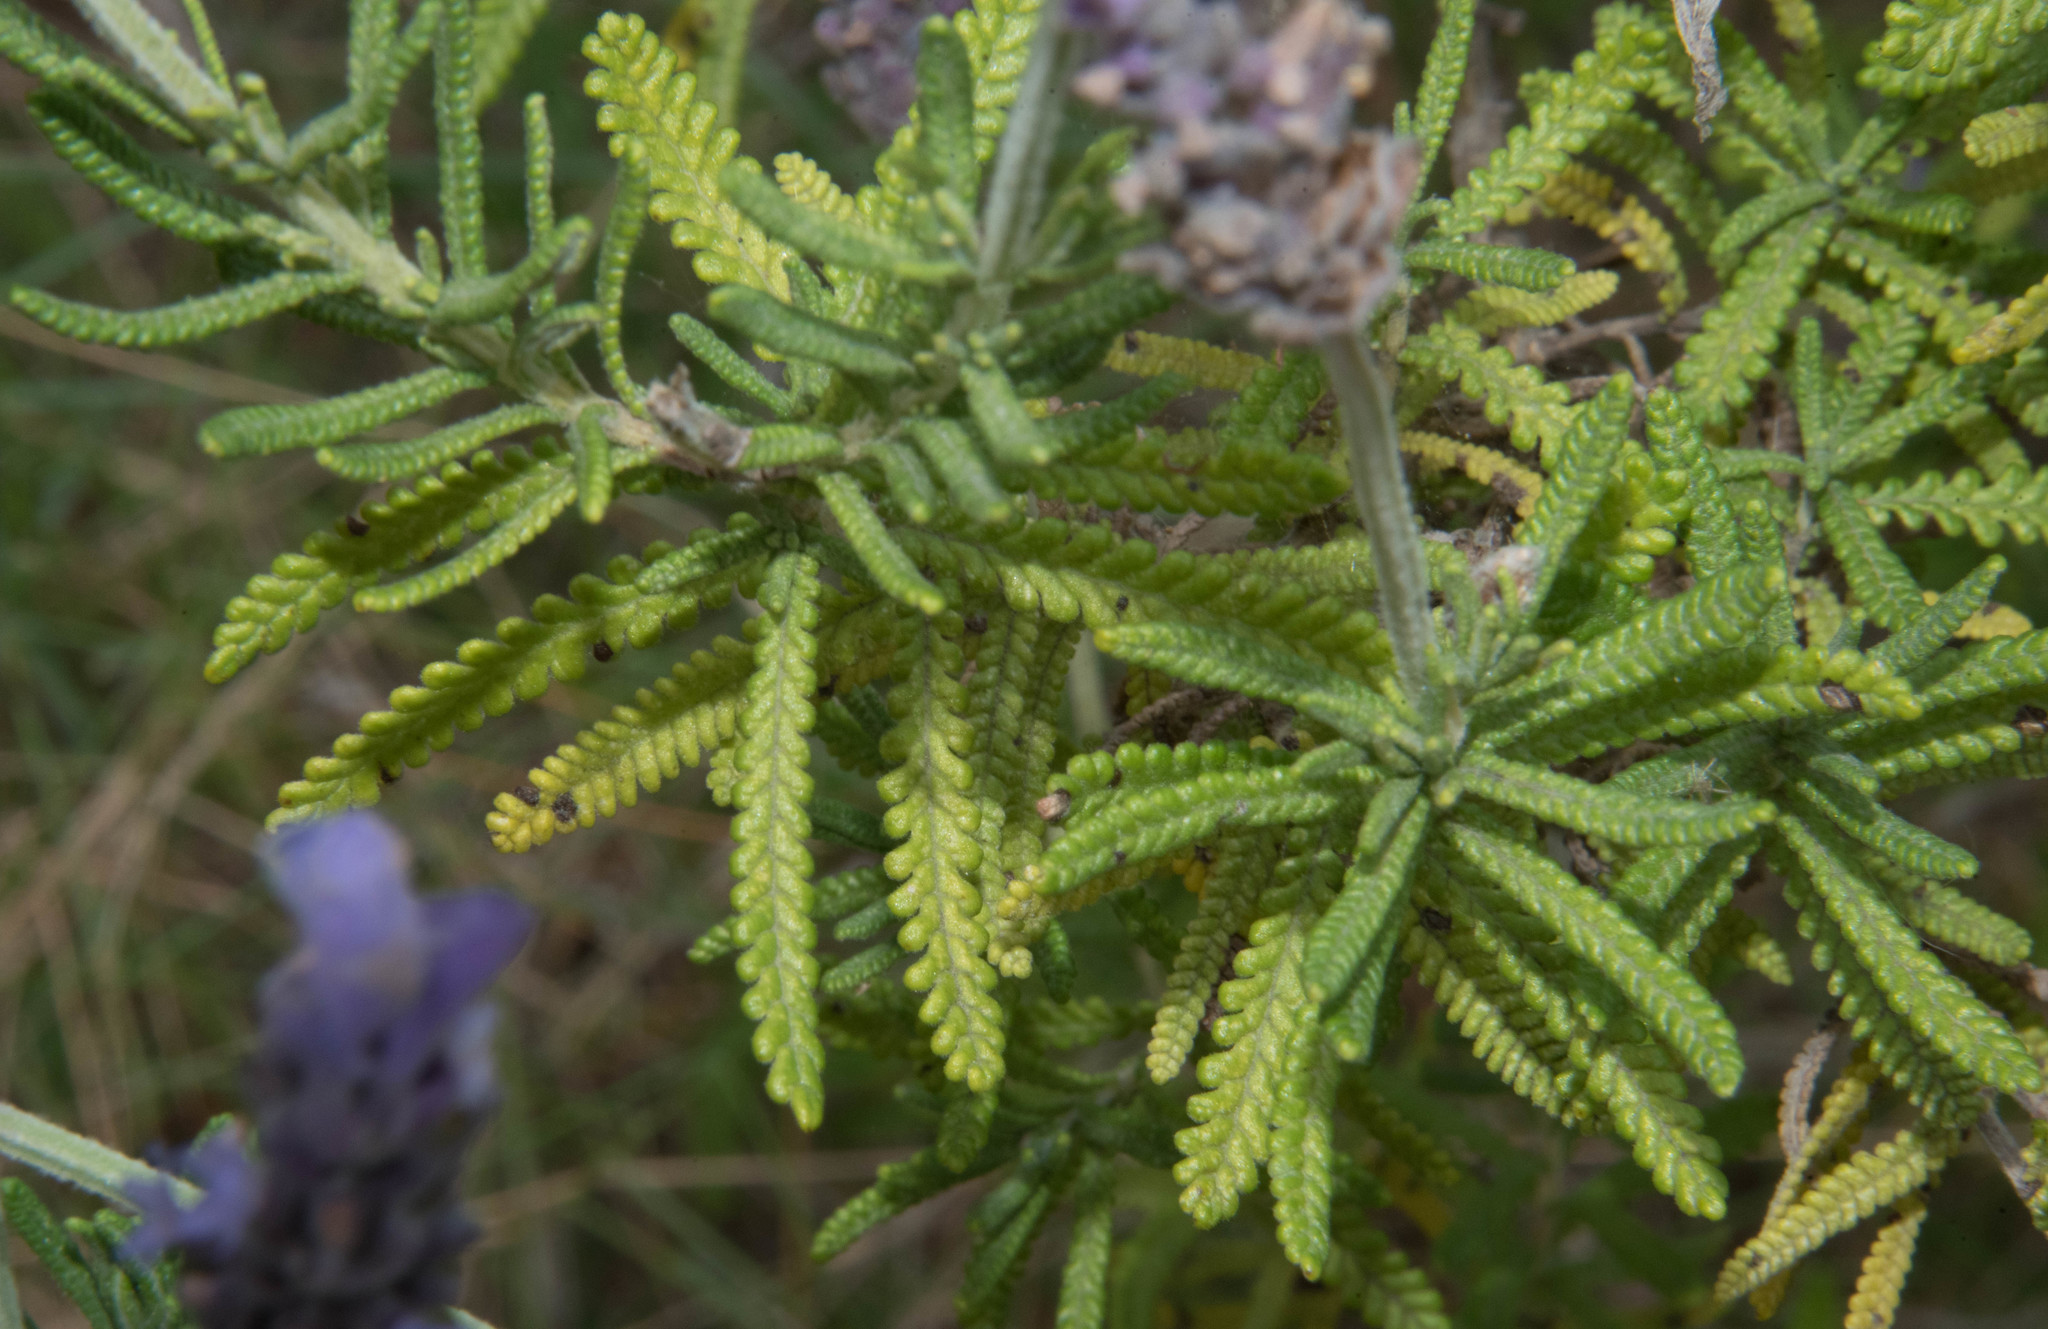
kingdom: Plantae
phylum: Tracheophyta
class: Magnoliopsida
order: Lamiales
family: Lamiaceae
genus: Lavandula
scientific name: Lavandula dentata
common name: French lavender
